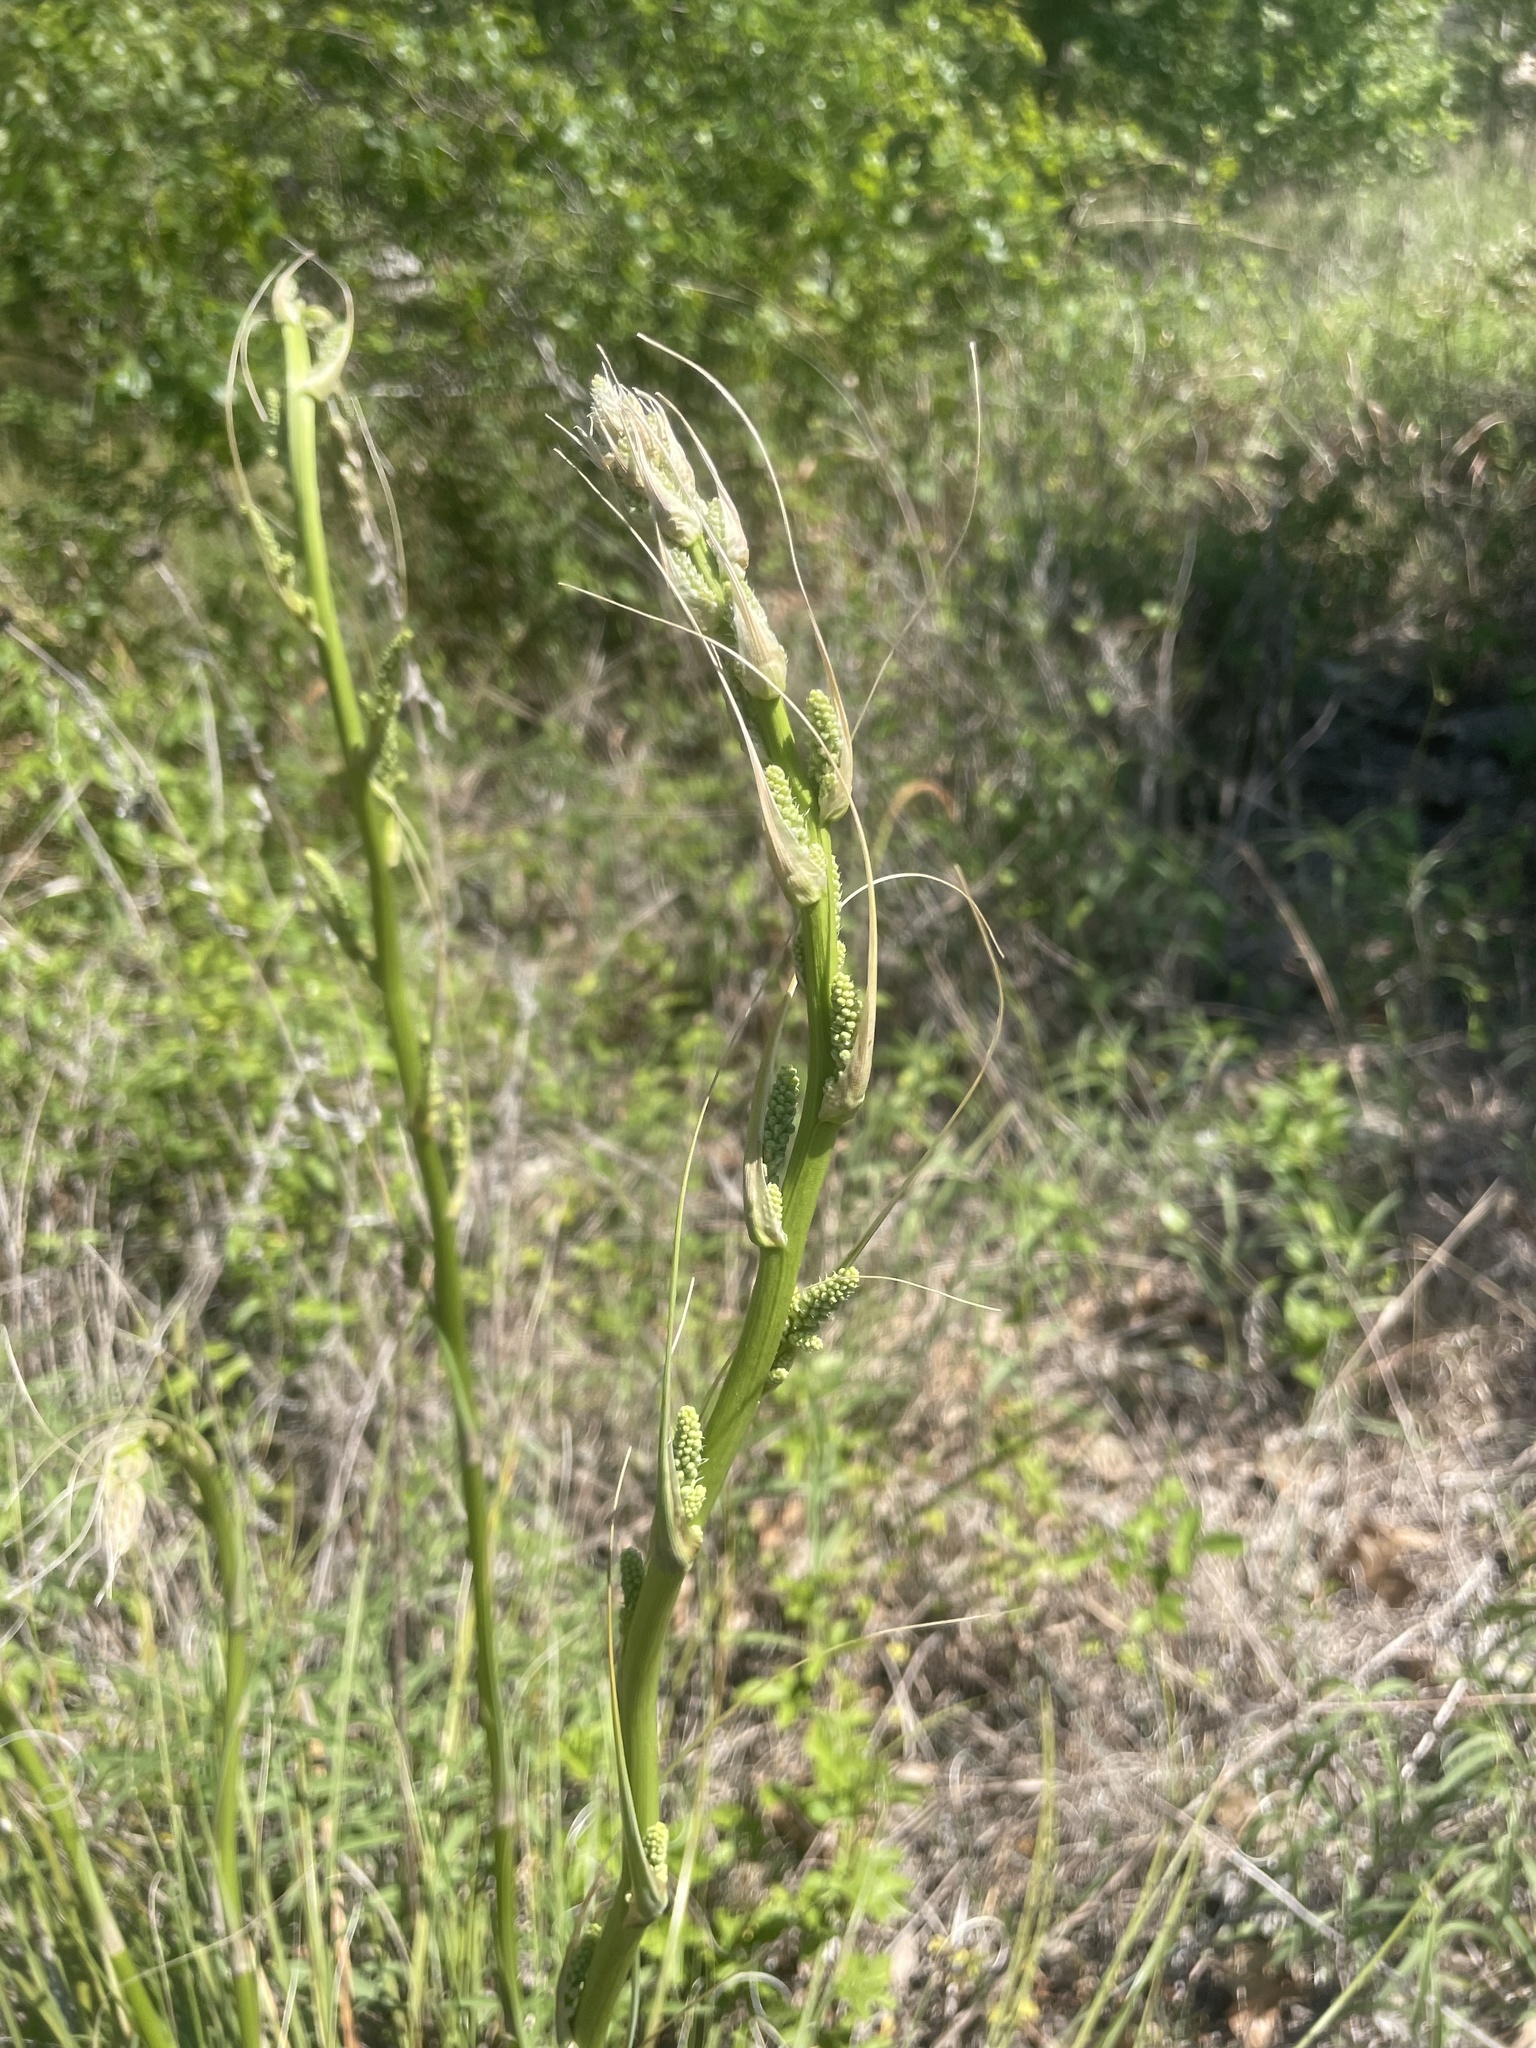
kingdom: Plantae
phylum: Tracheophyta
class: Liliopsida
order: Asparagales
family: Asparagaceae
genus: Nolina
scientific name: Nolina lindheimeriana
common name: Lindheimer's bear-grass
